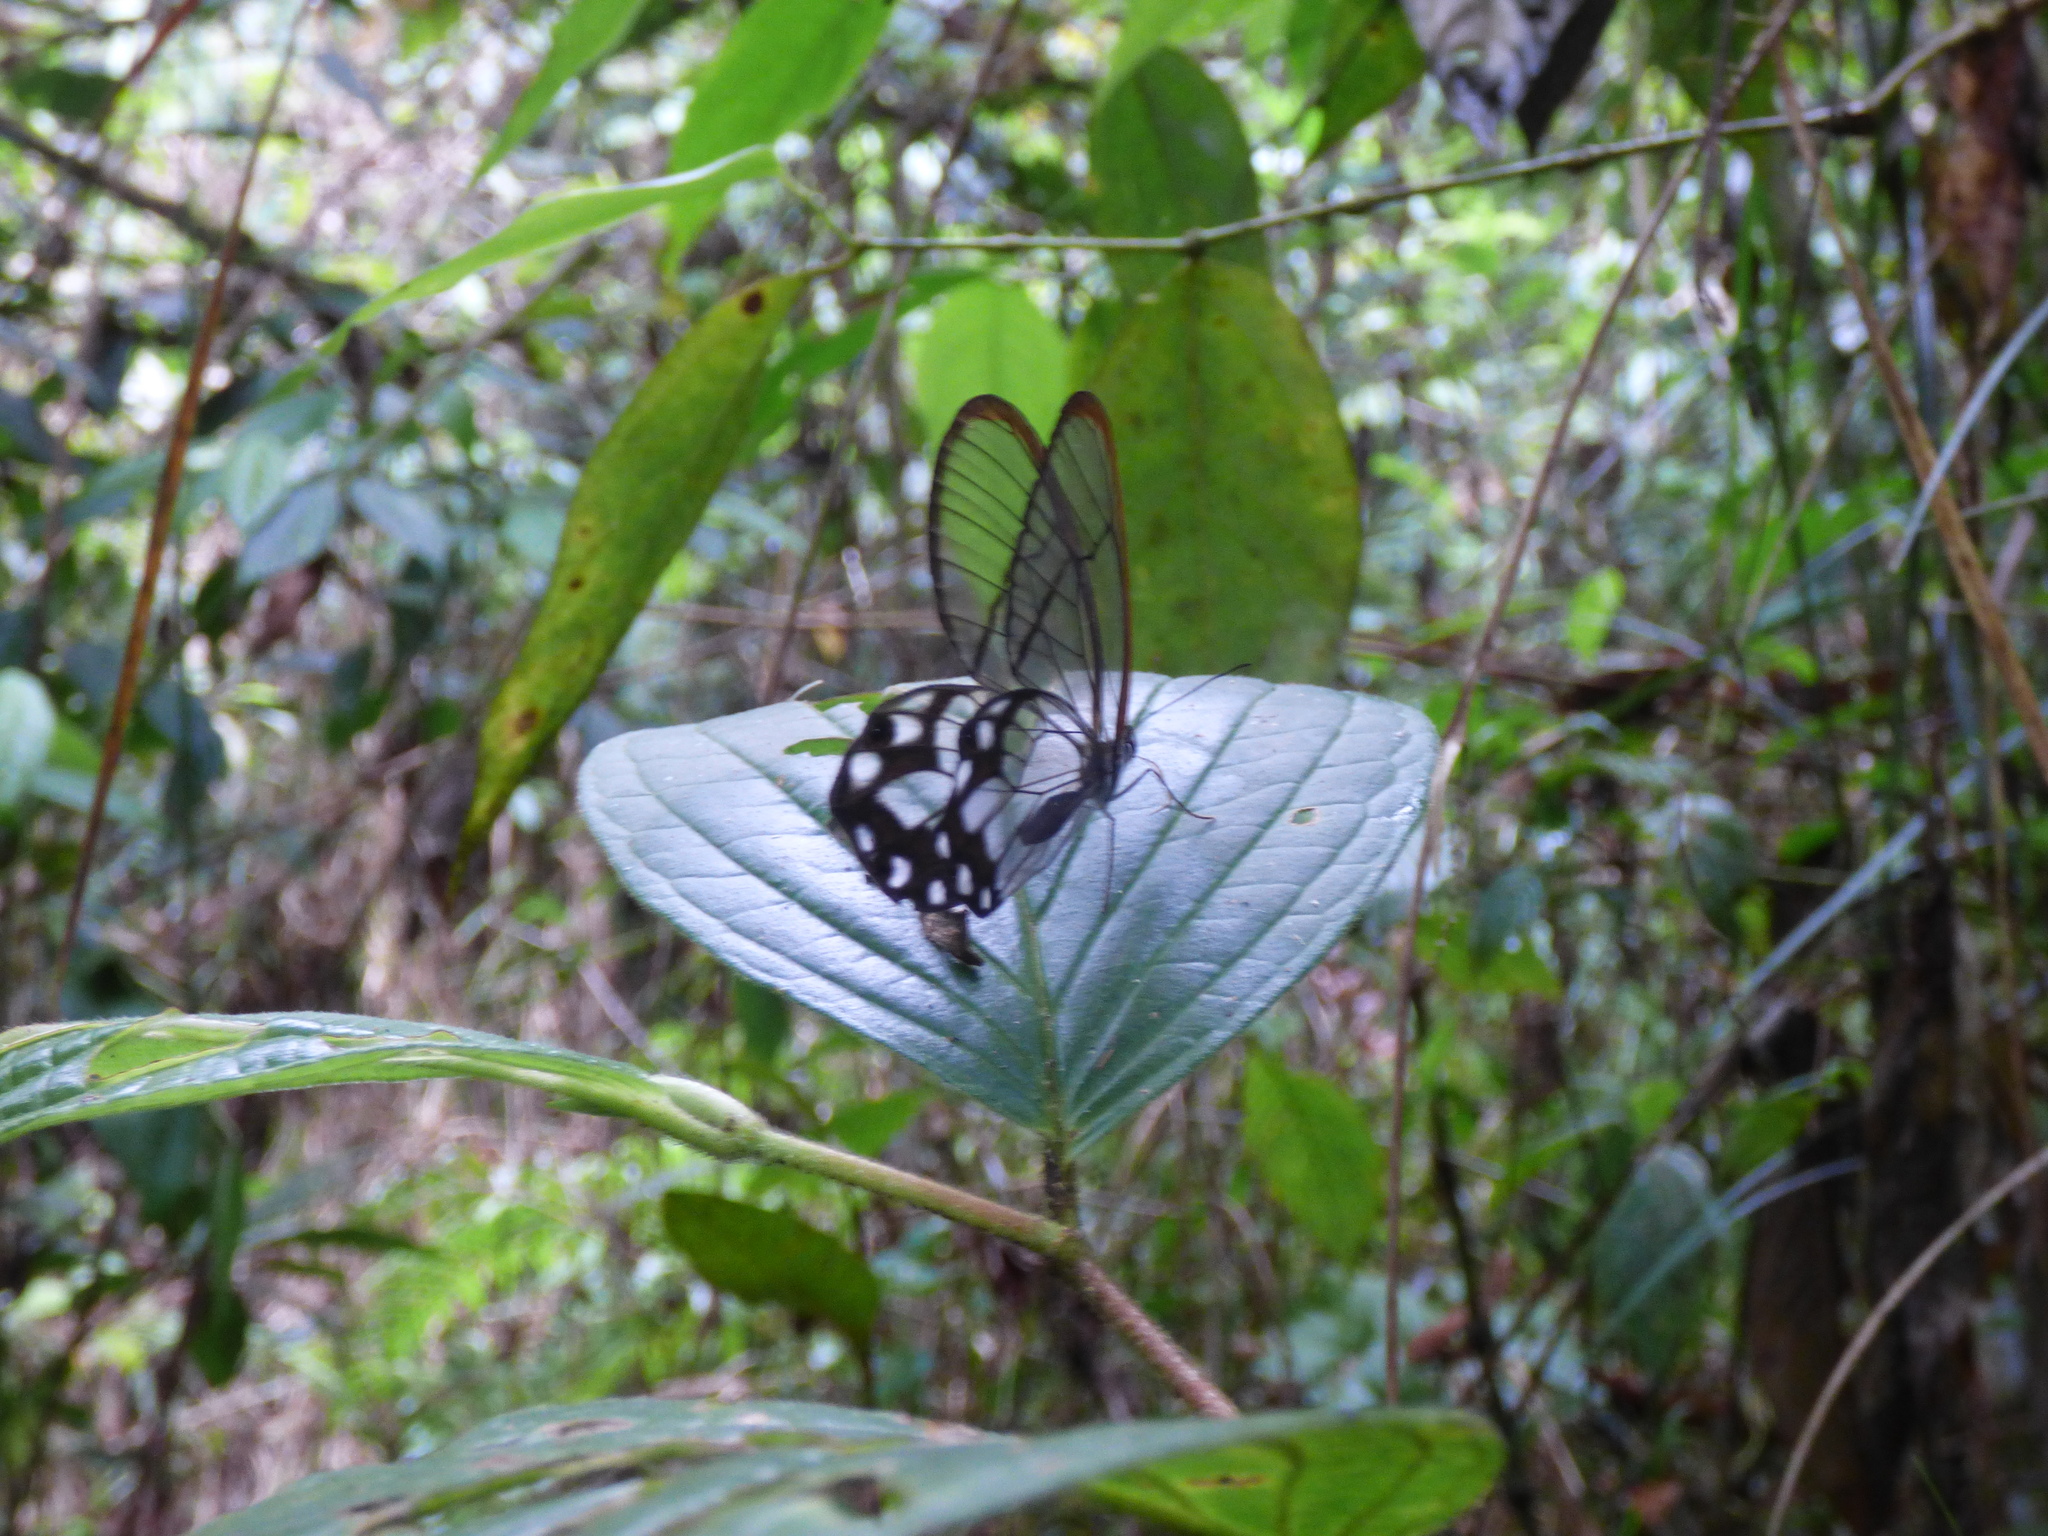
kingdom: Animalia
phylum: Arthropoda
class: Insecta
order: Lepidoptera
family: Nymphalidae
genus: Pseudohaetera
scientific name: Pseudohaetera hypaesia
